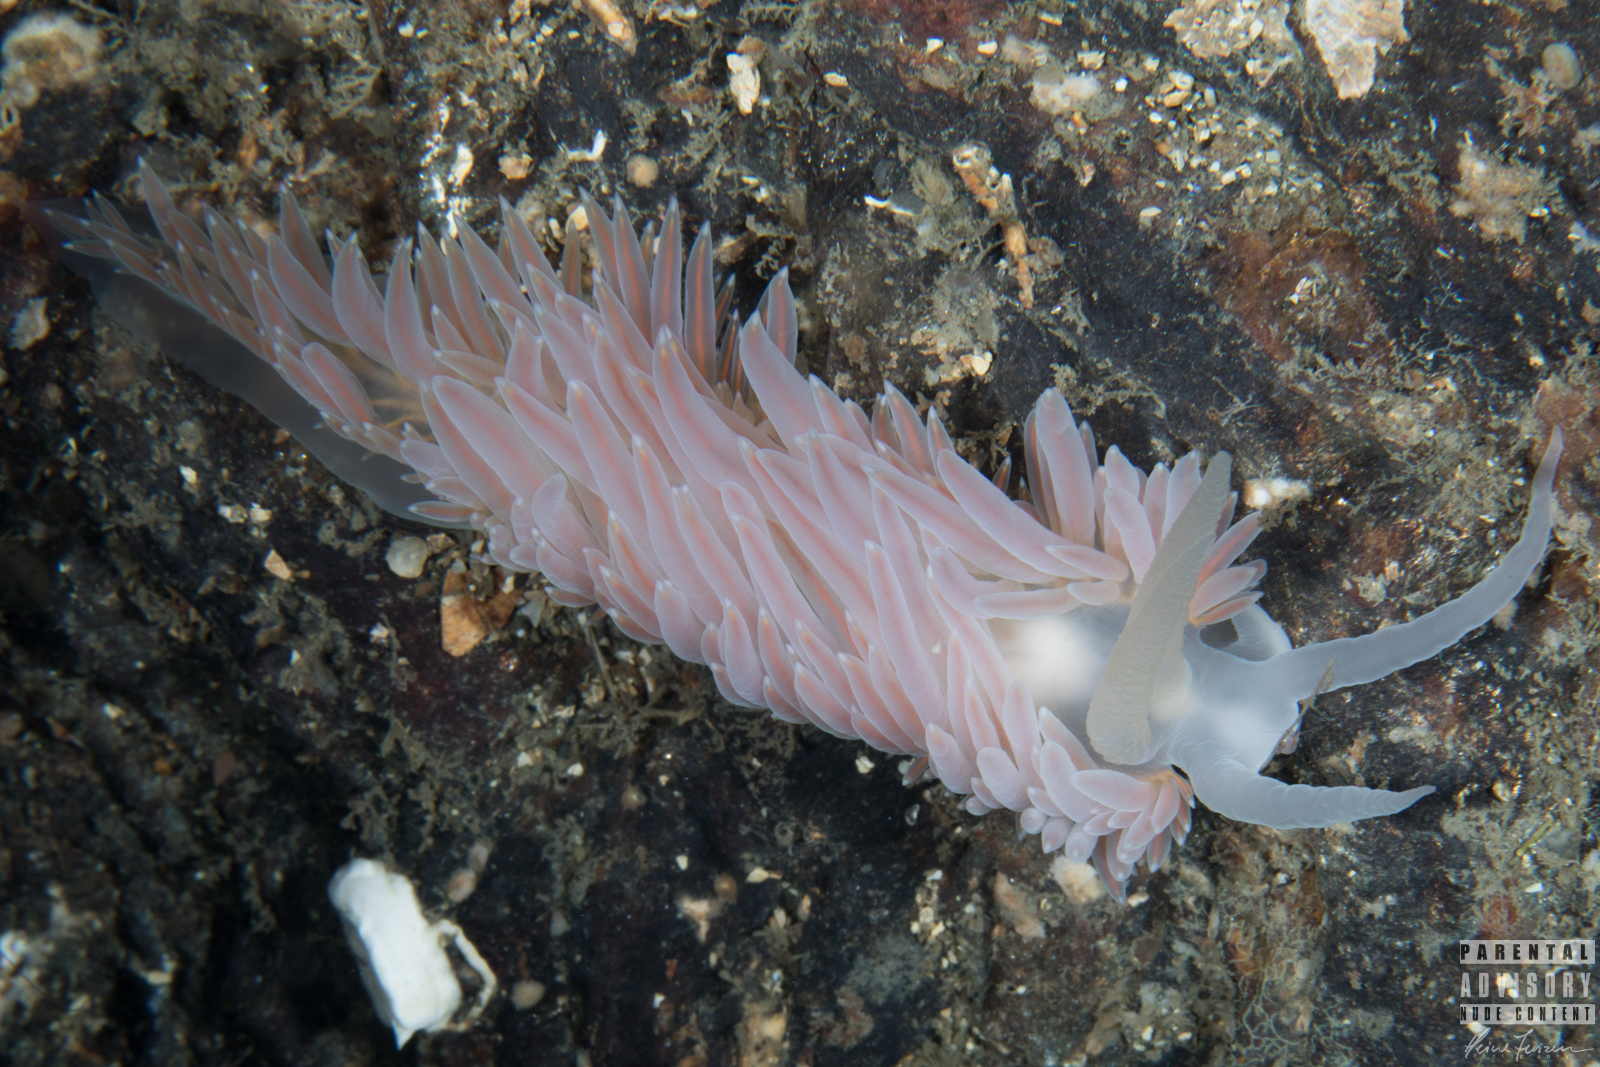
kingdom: Animalia
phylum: Mollusca
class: Gastropoda
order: Nudibranchia
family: Paracoryphellidae
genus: Ziminella
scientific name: Ziminella salmonacea
